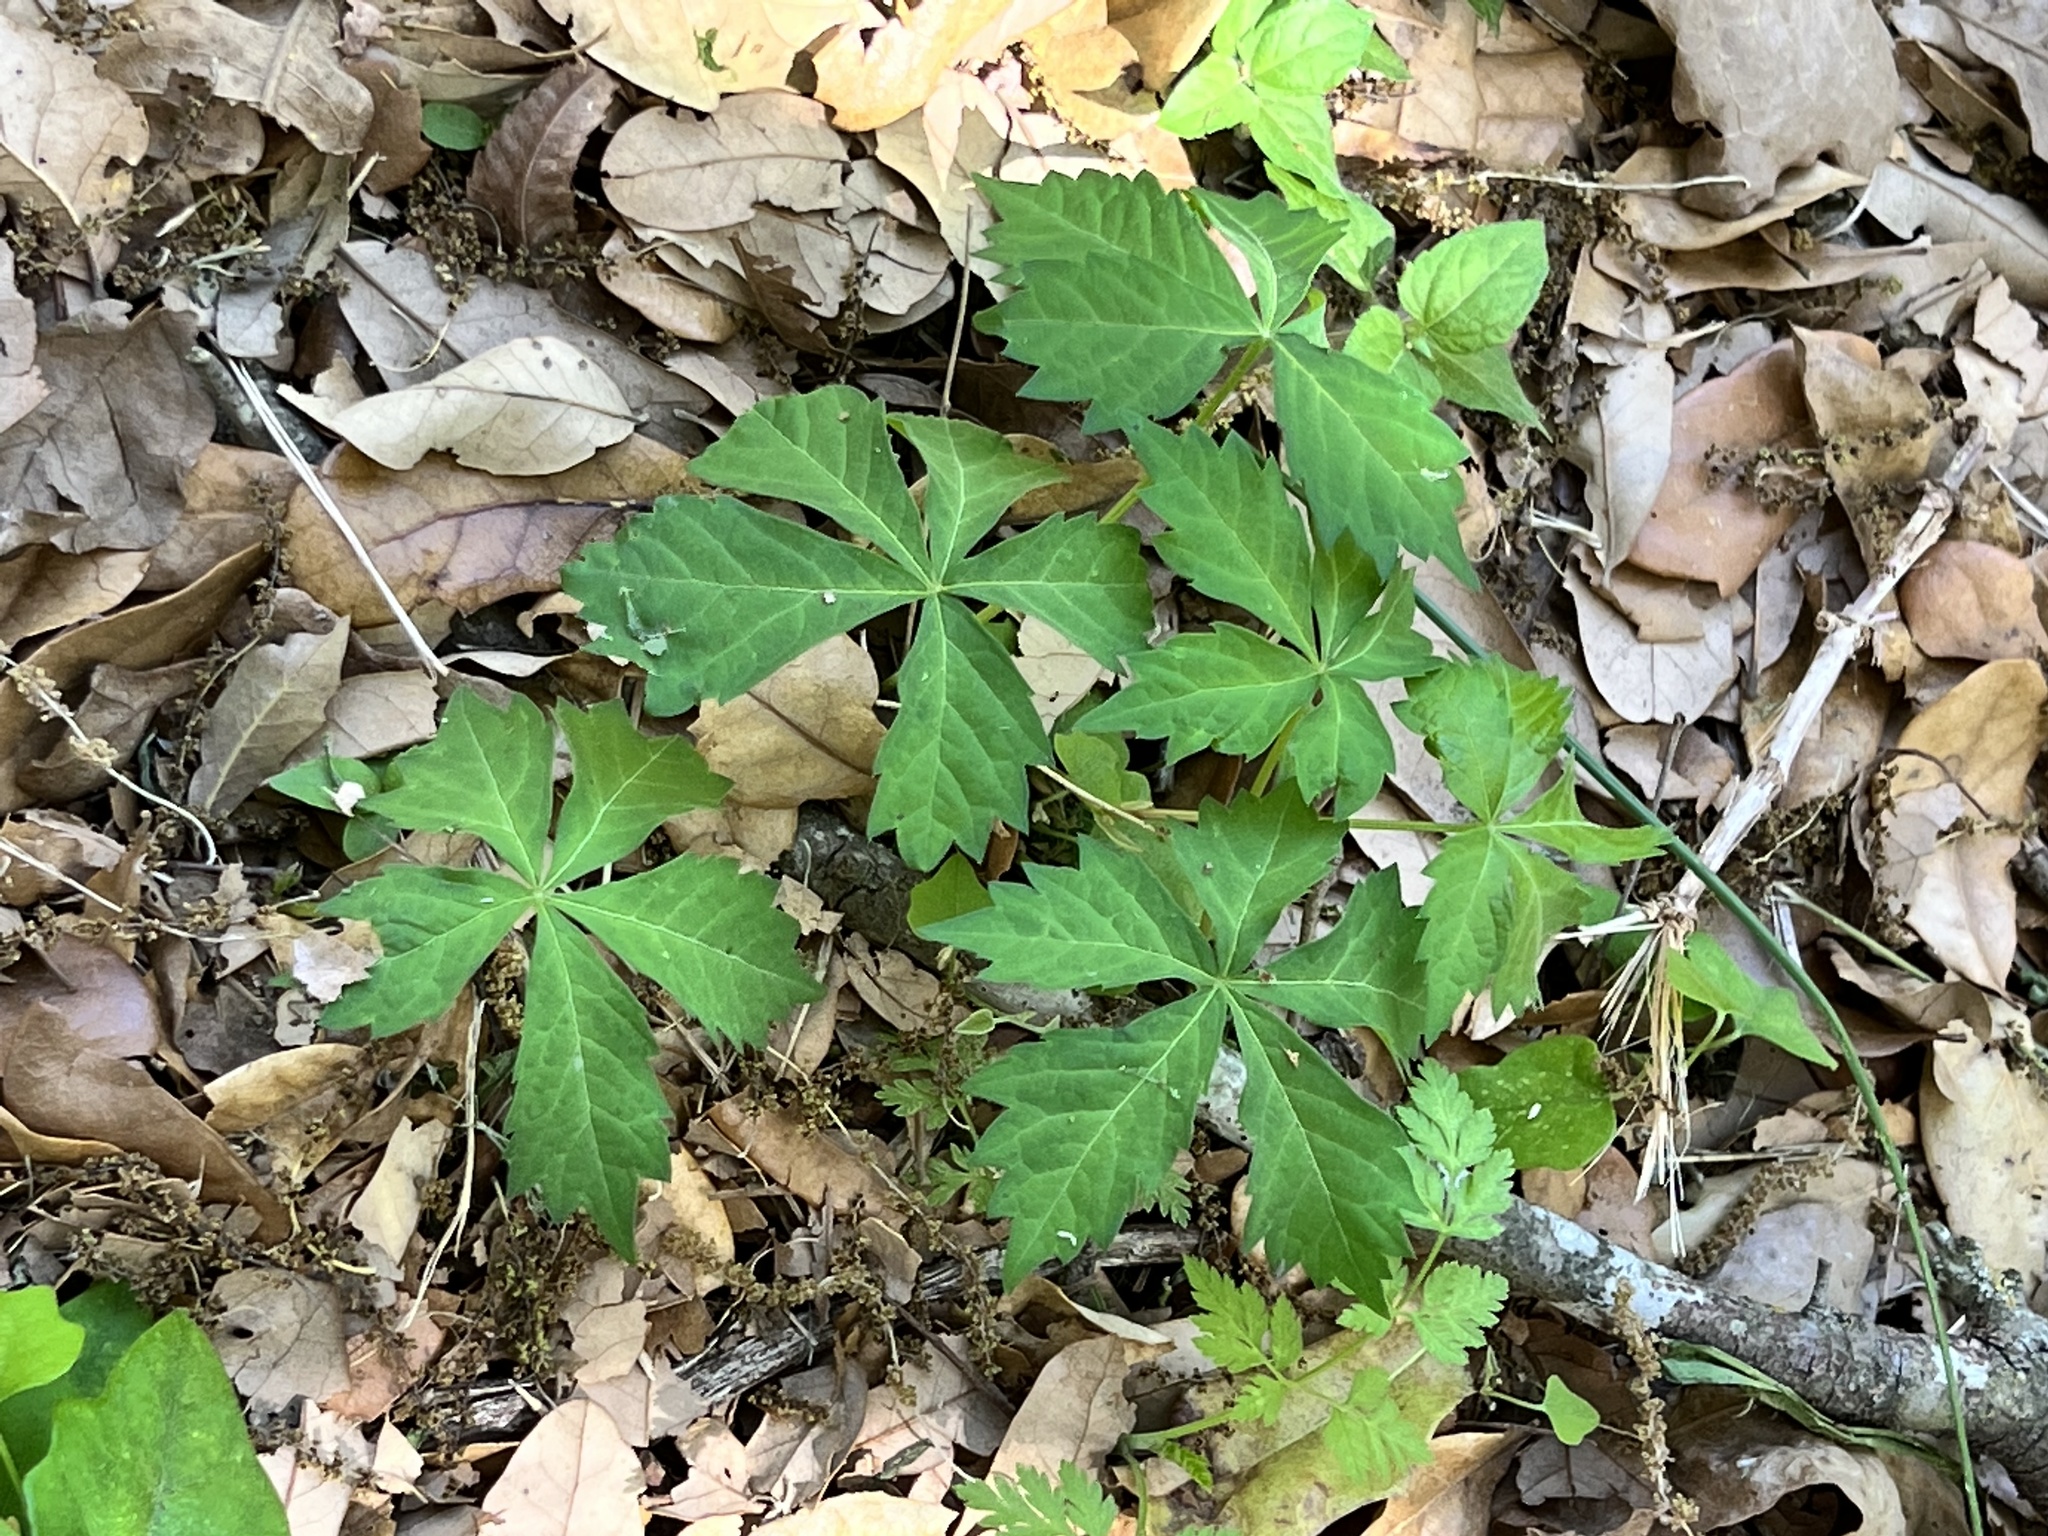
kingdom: Plantae
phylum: Tracheophyta
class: Magnoliopsida
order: Vitales
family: Vitaceae
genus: Parthenocissus
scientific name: Parthenocissus quinquefolia
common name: Virginia-creeper
